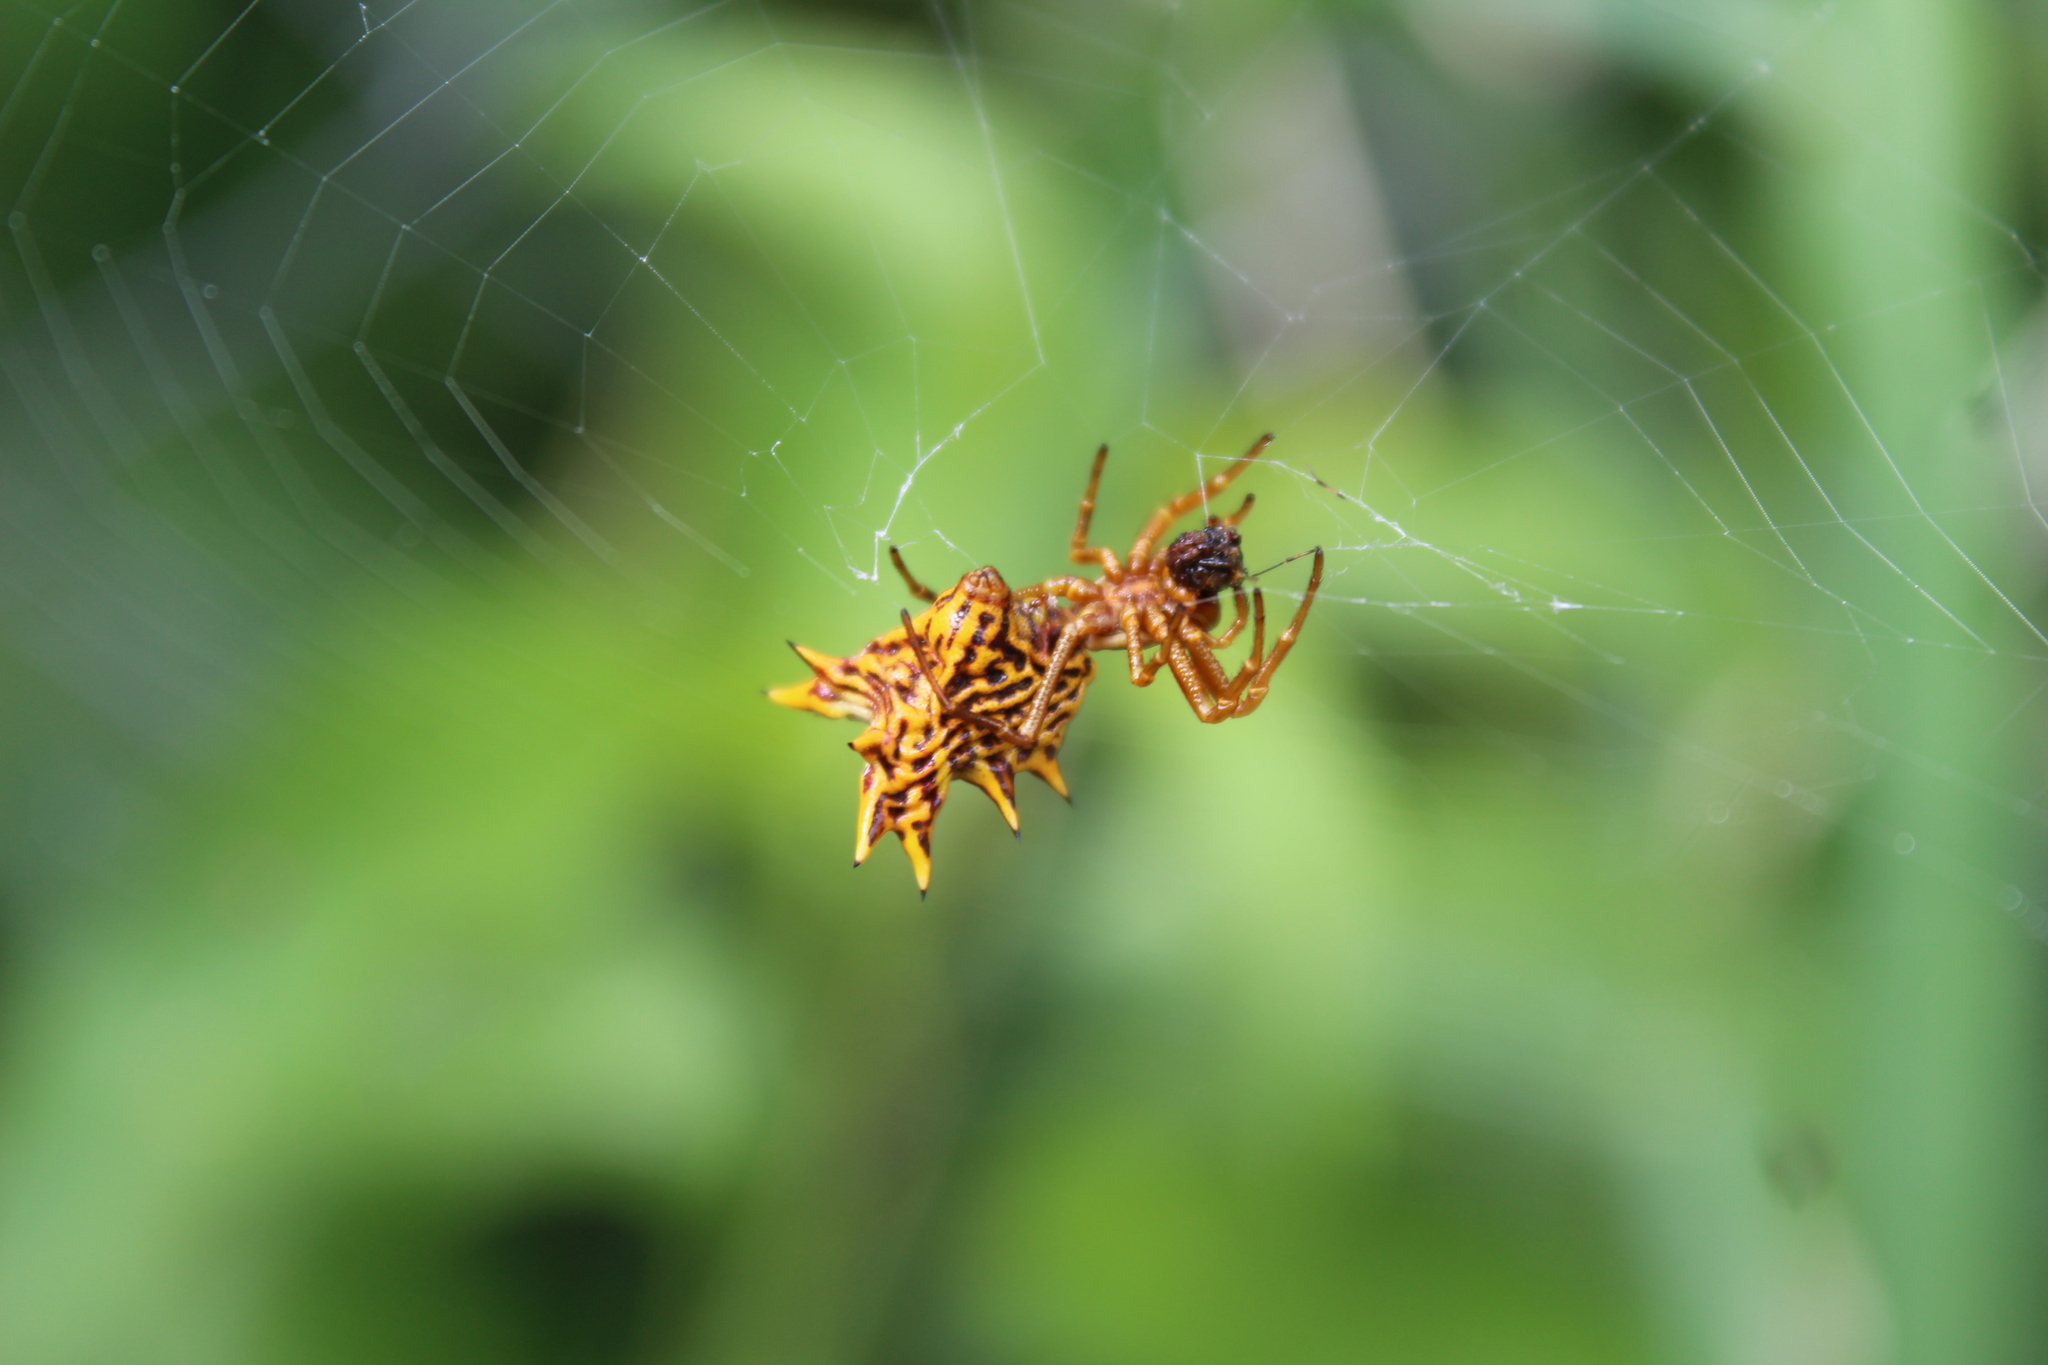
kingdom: Animalia
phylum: Arthropoda
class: Arachnida
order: Araneae
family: Araneidae
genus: Micrathena
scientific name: Micrathena gracilis
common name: Orb weavers
